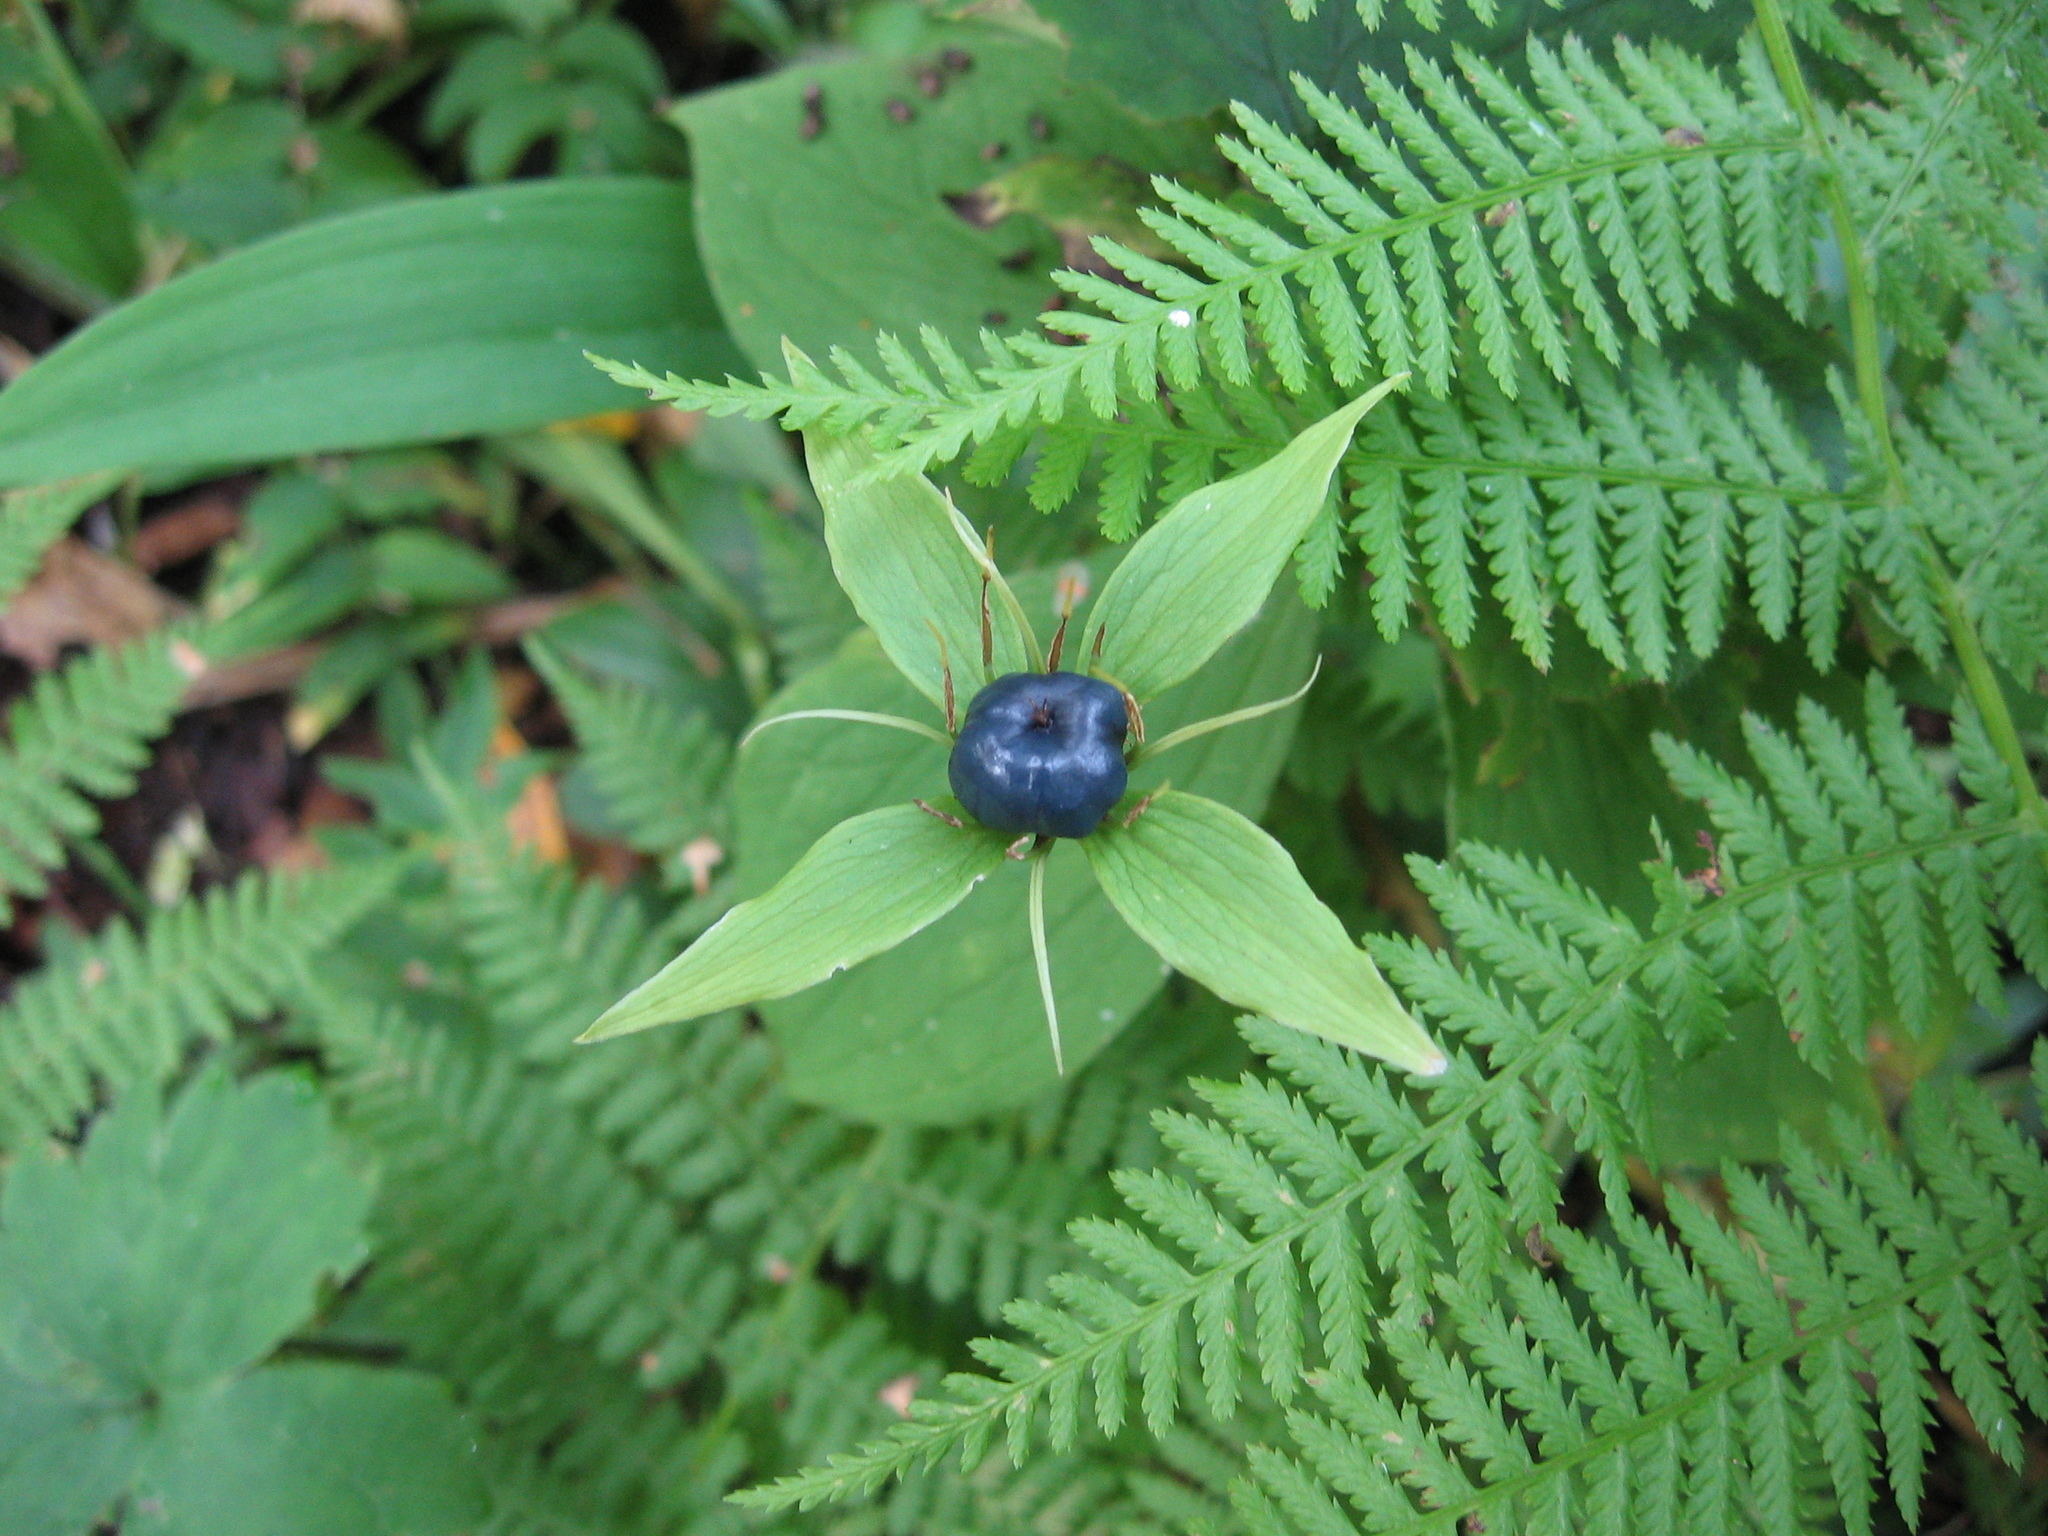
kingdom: Plantae
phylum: Tracheophyta
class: Liliopsida
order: Liliales
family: Melanthiaceae
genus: Paris
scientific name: Paris quadrifolia
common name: Herb-paris
